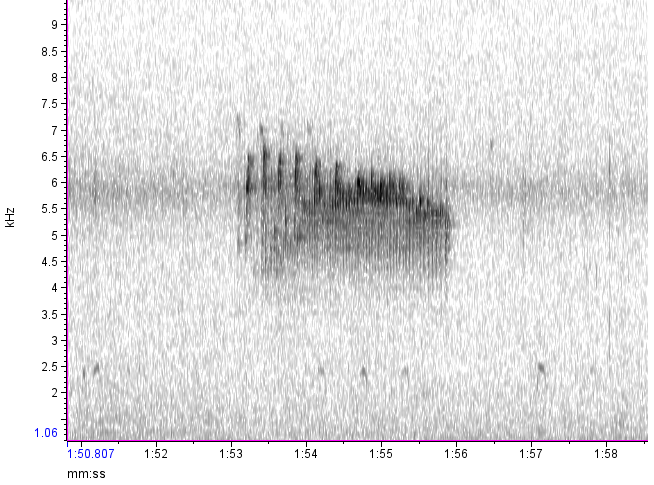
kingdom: Animalia
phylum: Chordata
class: Aves
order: Passeriformes
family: Furnariidae
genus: Cranioleuca
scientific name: Cranioleuca pyrrhophia
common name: Stripe-crowned spinetail
